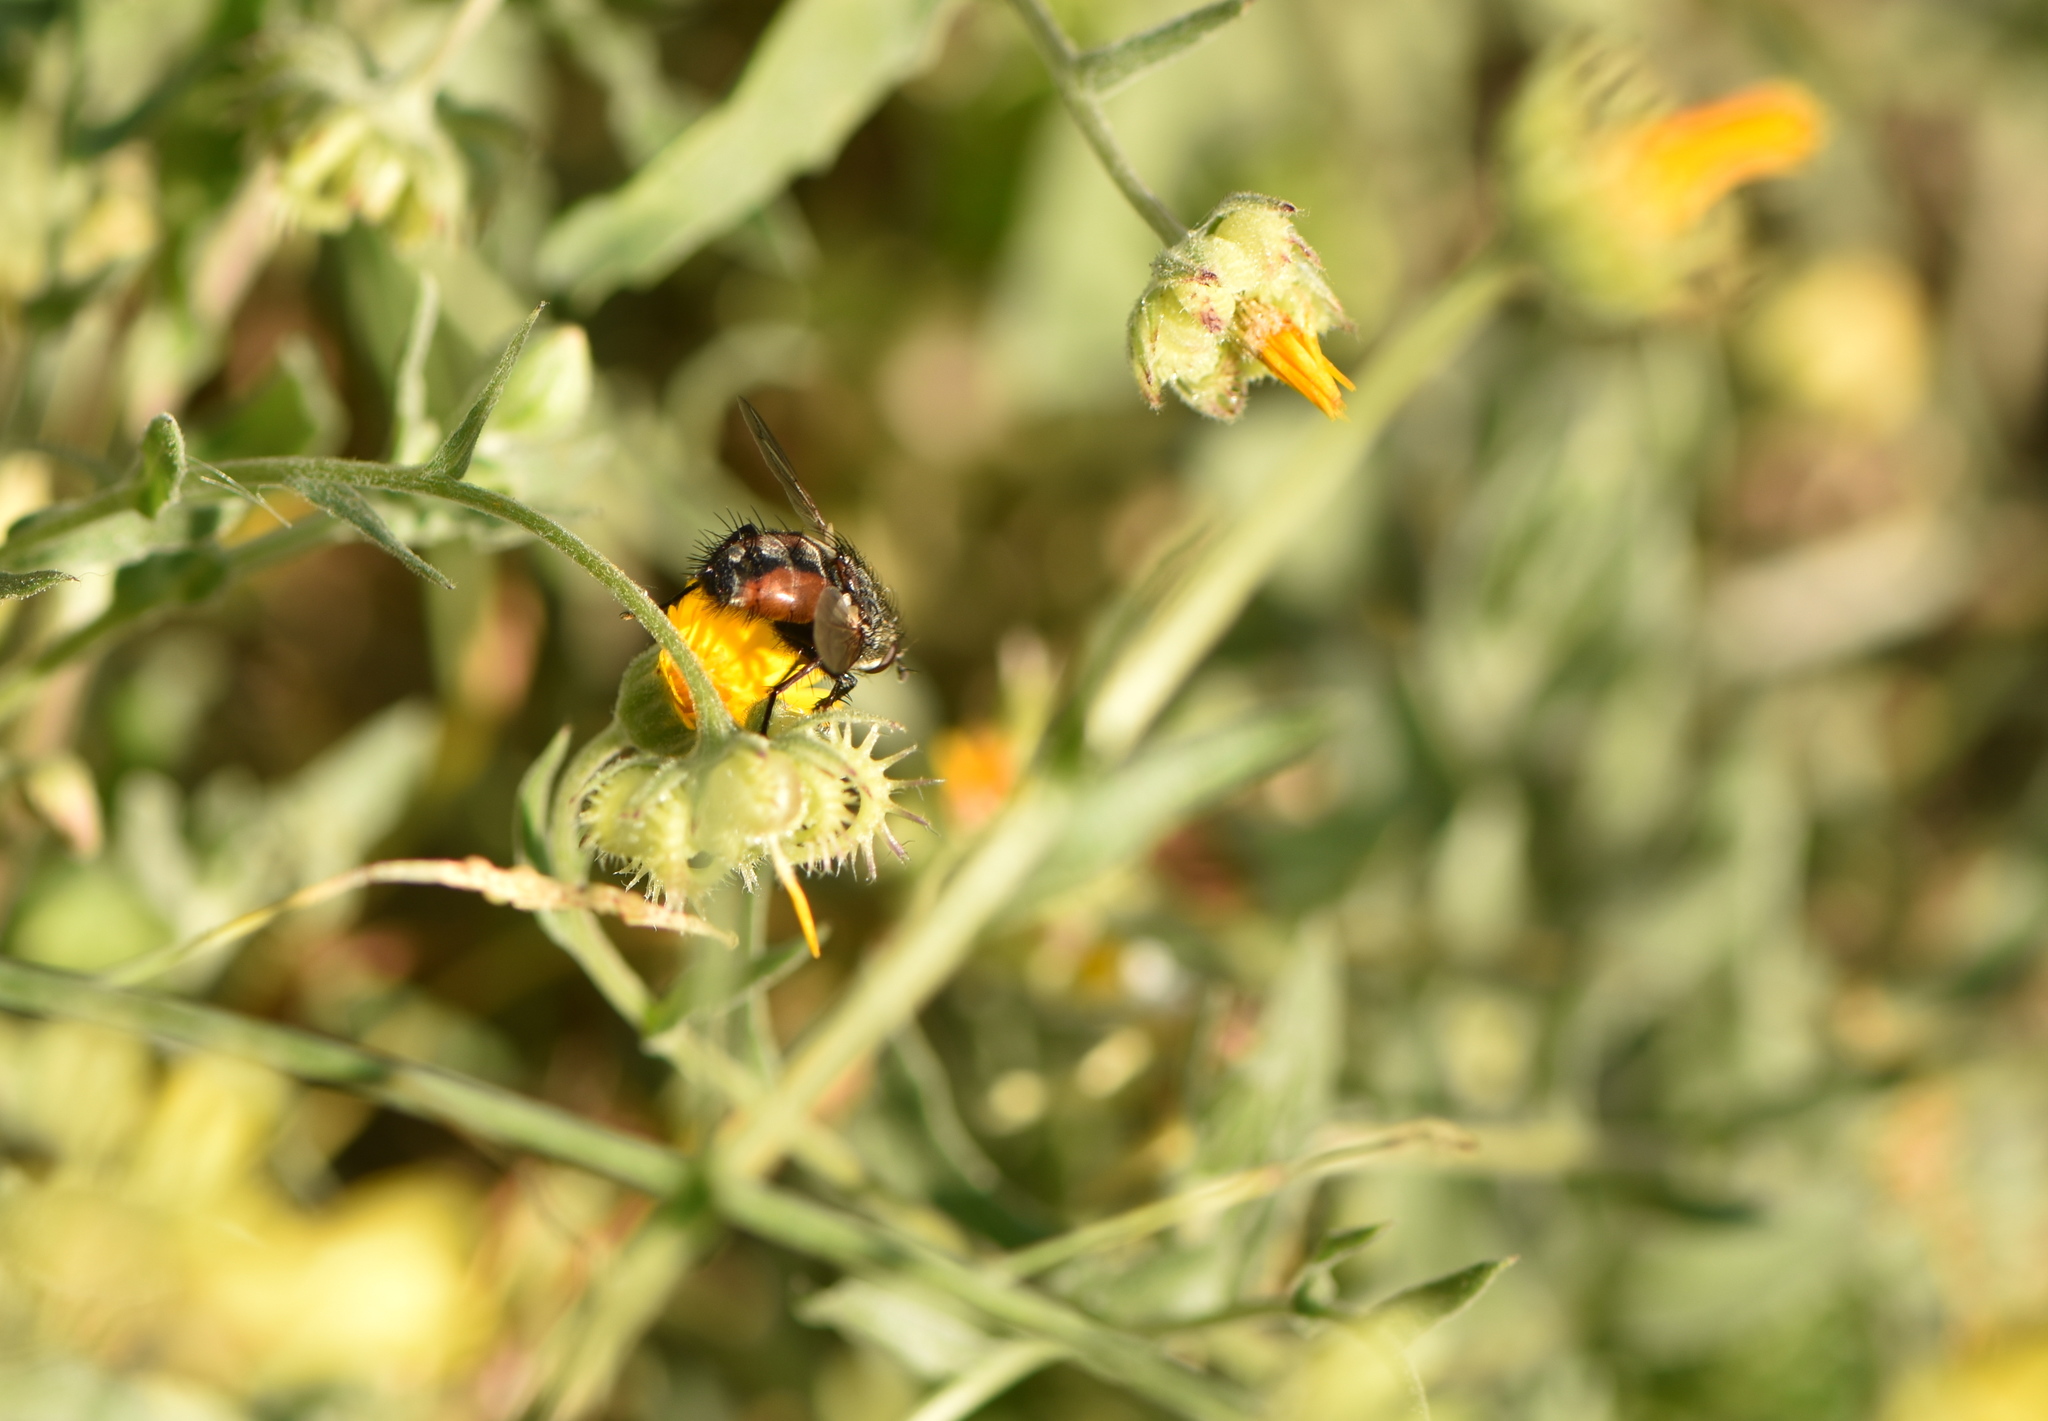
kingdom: Animalia
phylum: Arthropoda
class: Insecta
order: Diptera
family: Tachinidae
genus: Peleteria
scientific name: Peleteria rubescens
